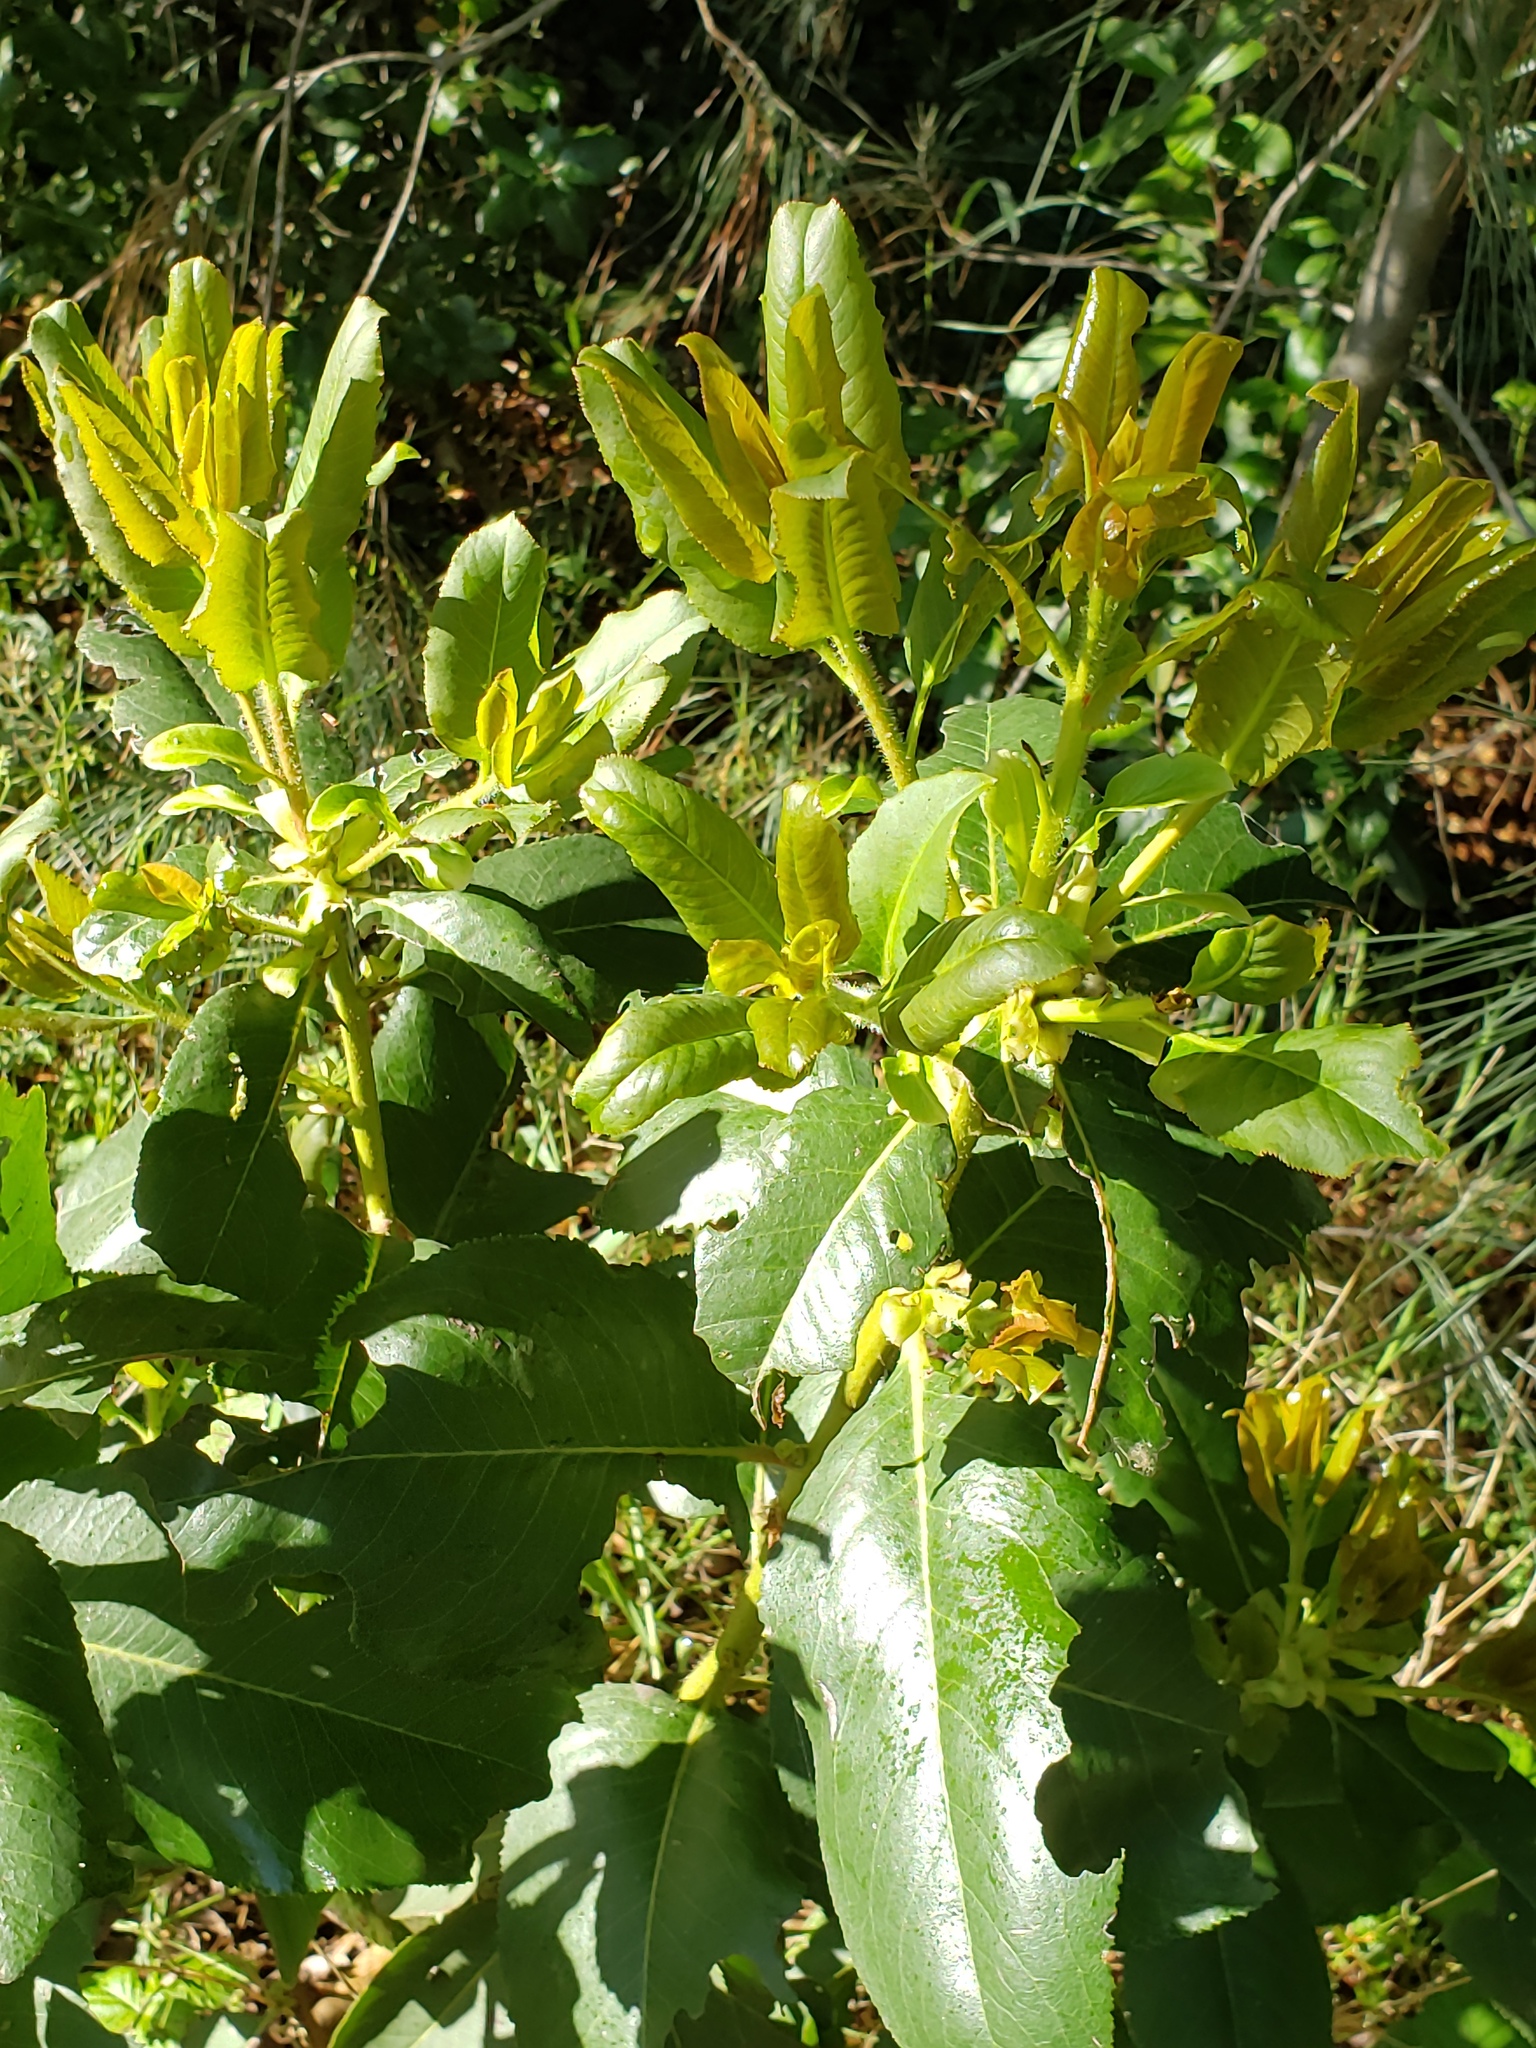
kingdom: Plantae
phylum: Tracheophyta
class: Magnoliopsida
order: Ericales
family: Ericaceae
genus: Arbutus
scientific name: Arbutus menziesii
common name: Pacific madrone
